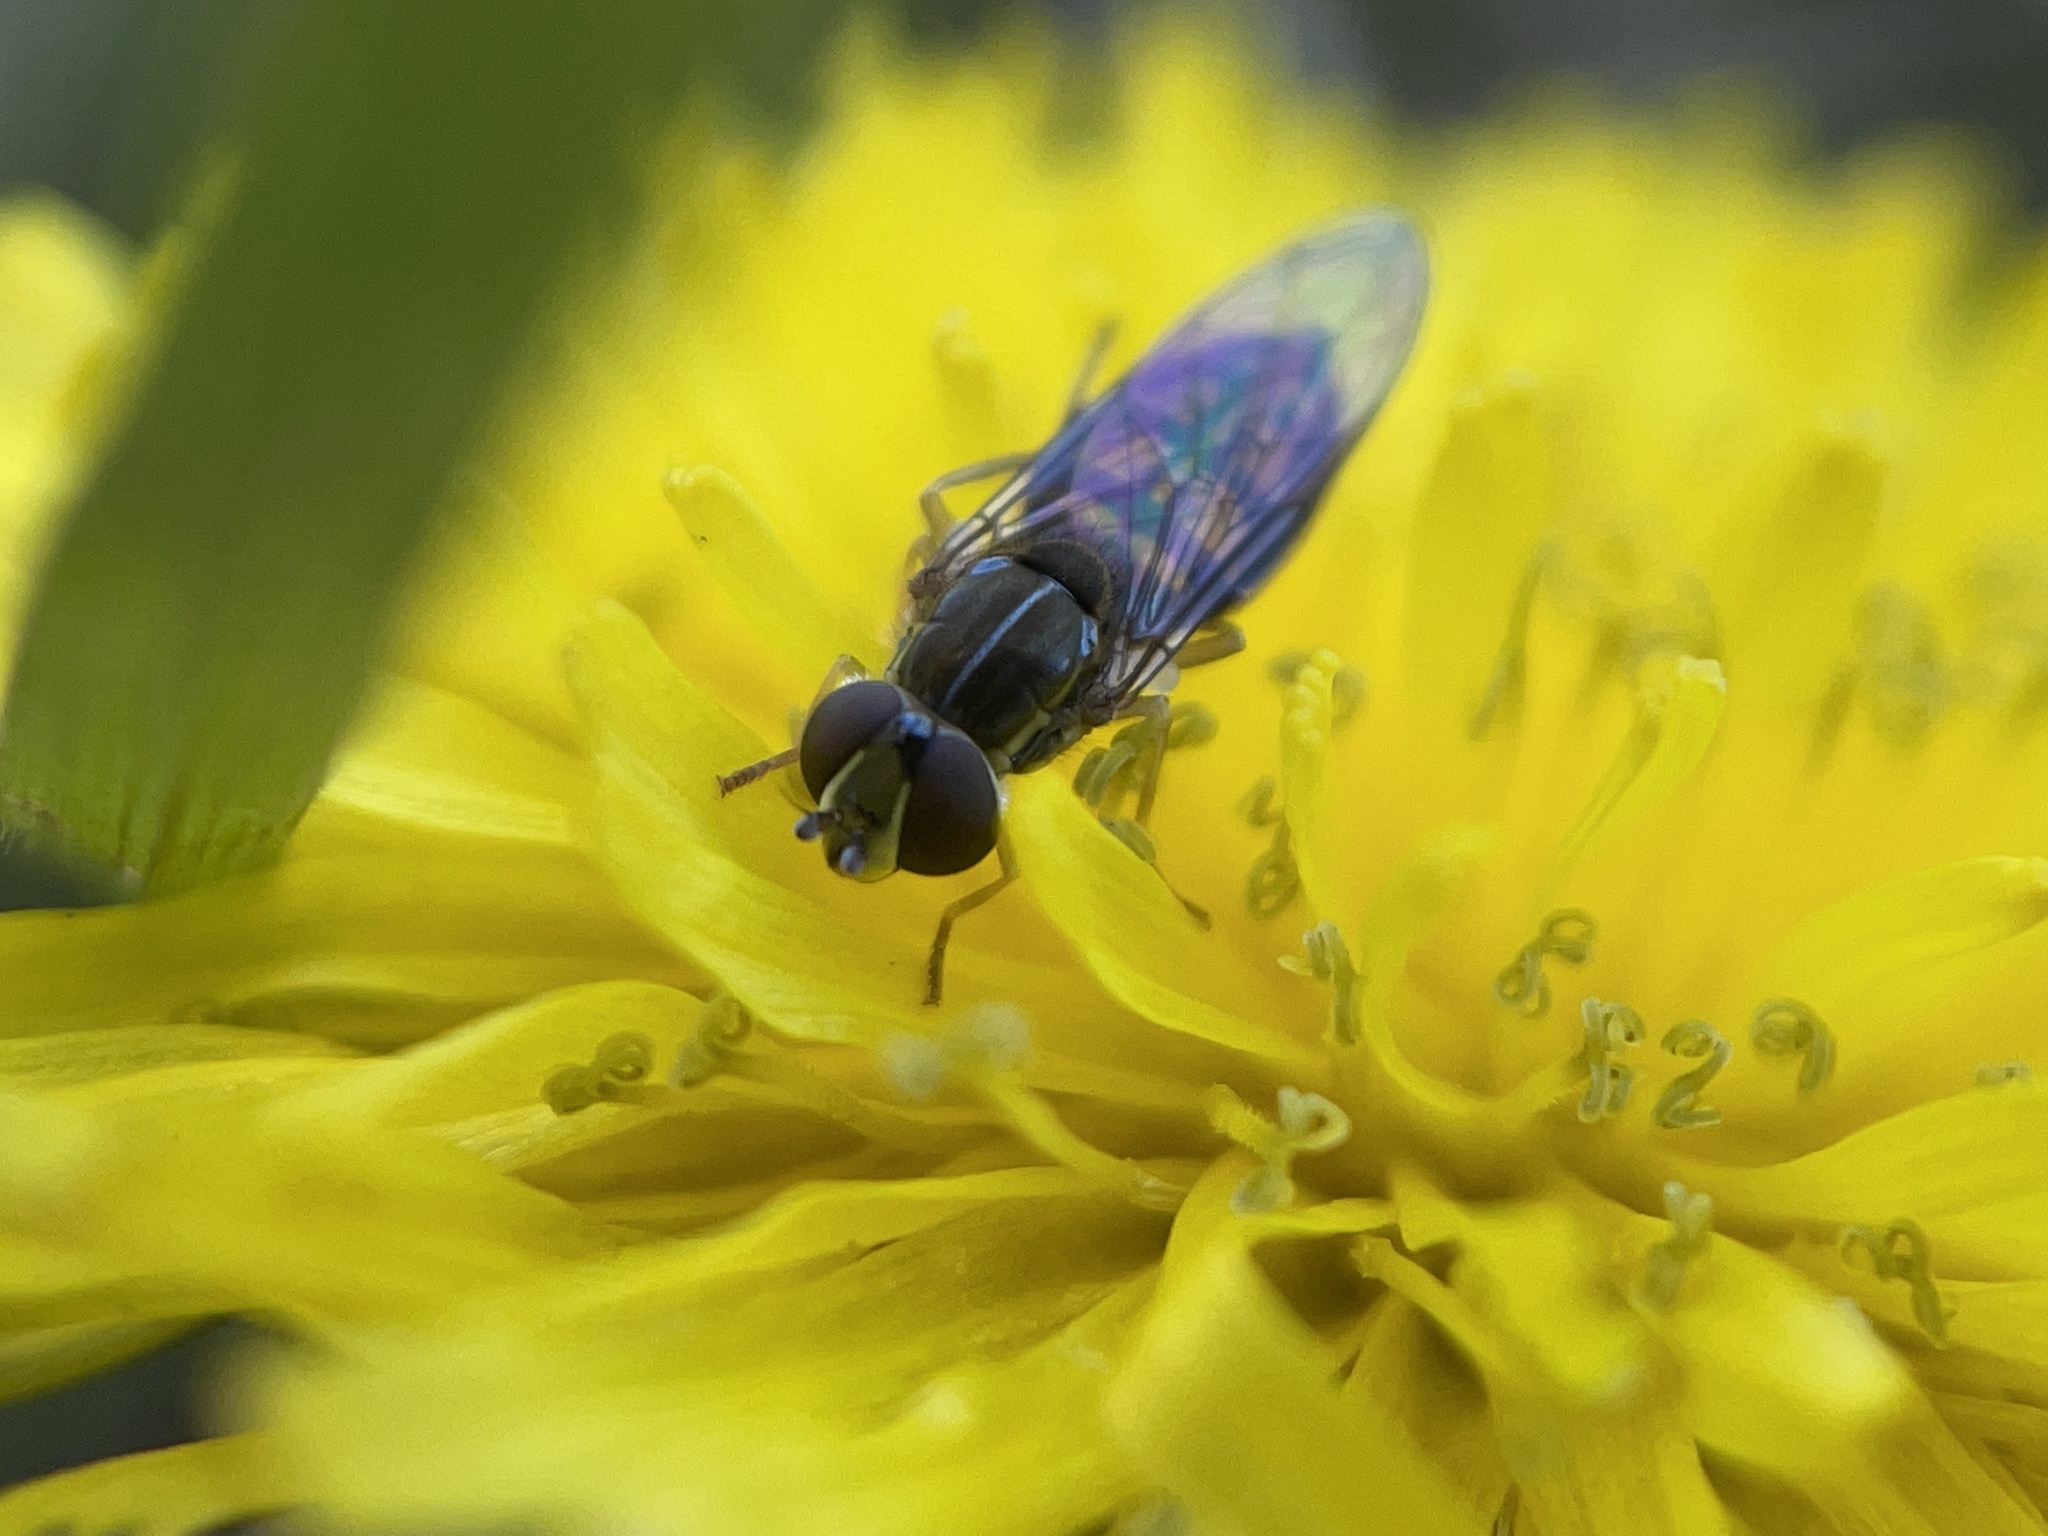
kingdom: Animalia
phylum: Arthropoda
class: Insecta
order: Diptera
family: Syrphidae
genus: Toxomerus
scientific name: Toxomerus marginatus
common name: Syrphid fly
